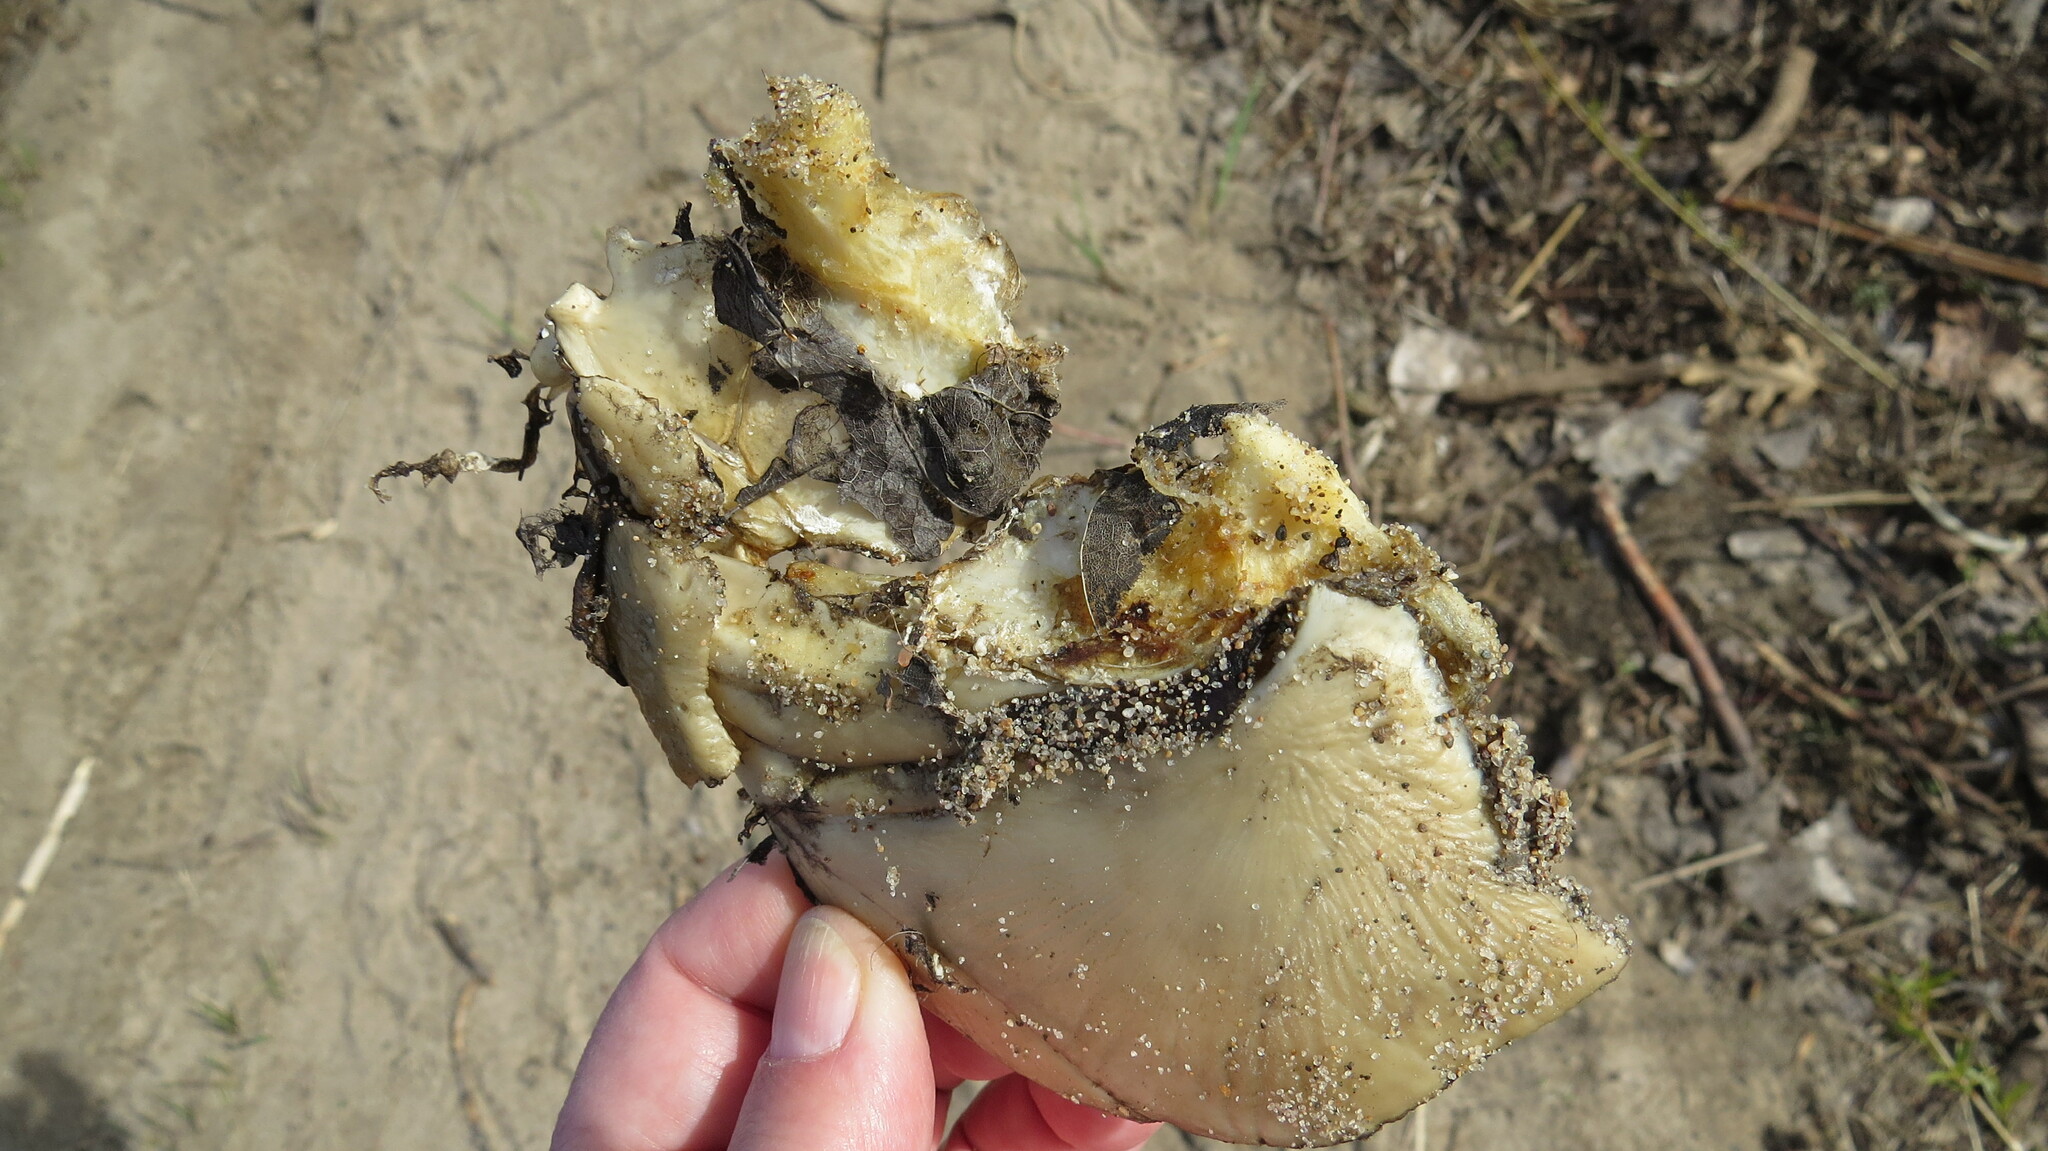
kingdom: Animalia
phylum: Chordata
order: Cypriniformes
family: Cyprinidae
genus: Cyprinus
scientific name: Cyprinus
